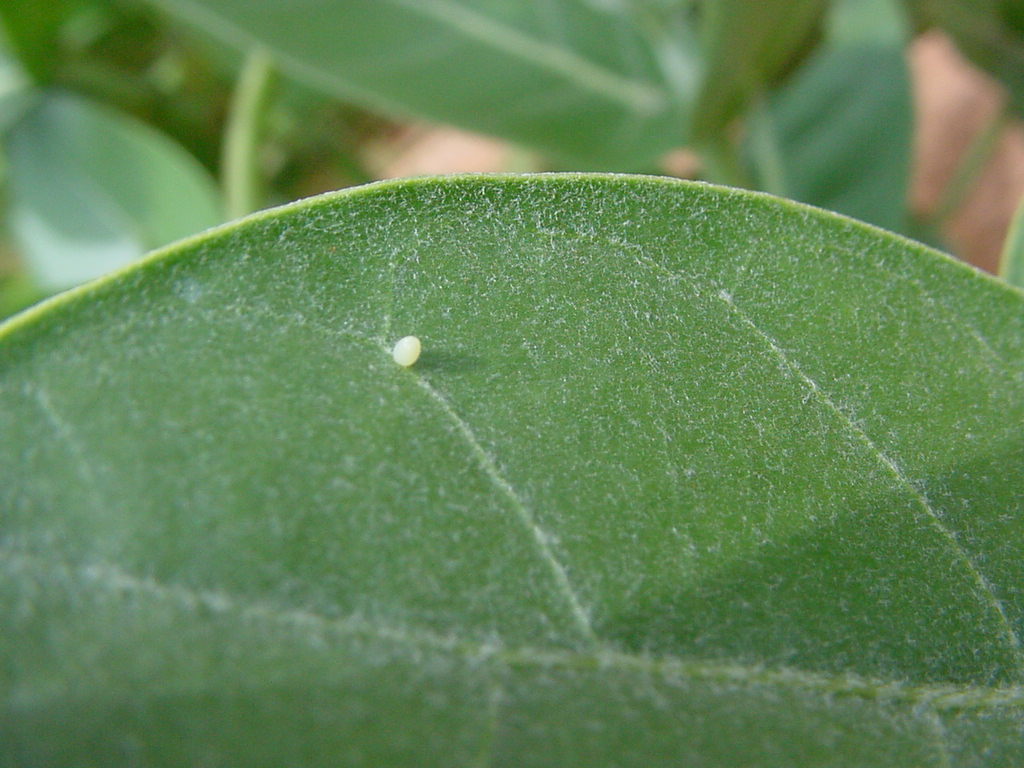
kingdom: Animalia
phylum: Arthropoda
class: Insecta
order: Lepidoptera
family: Nymphalidae
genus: Danaus
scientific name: Danaus chrysippus
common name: Plain tiger
